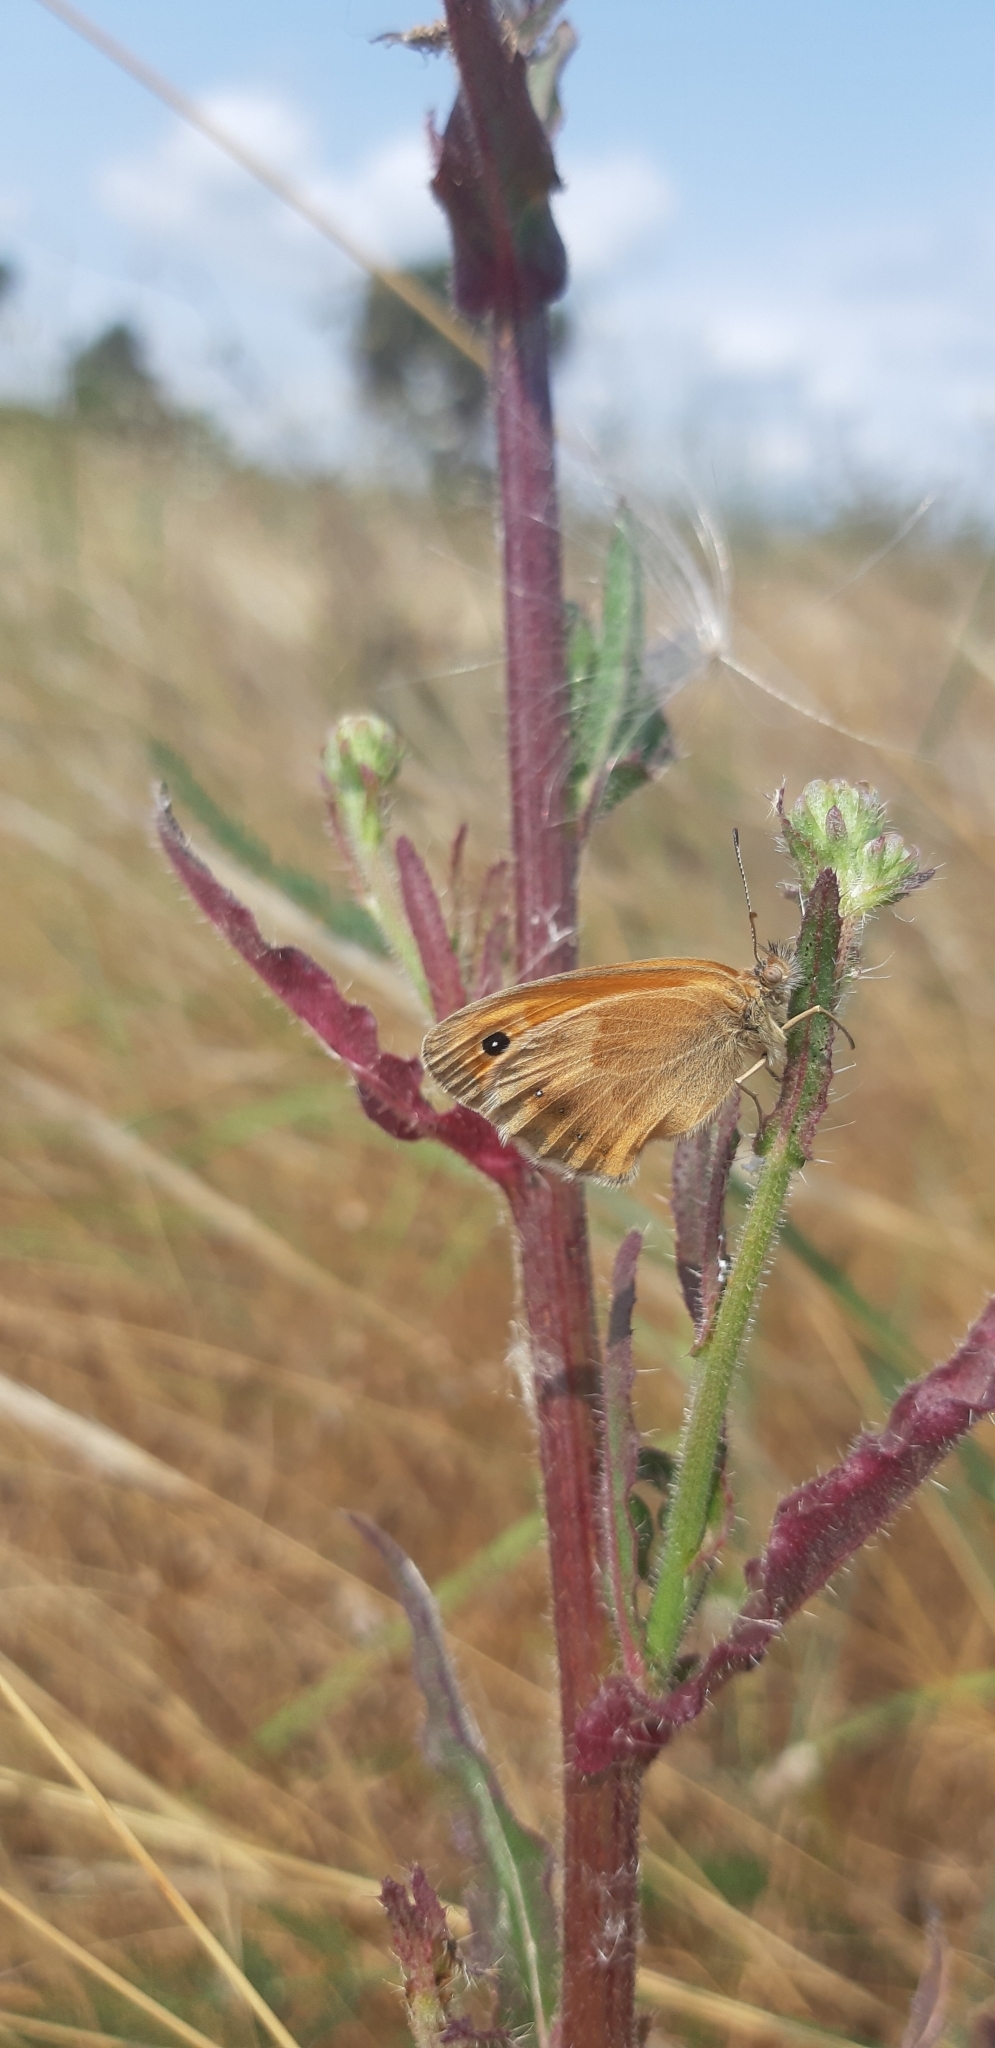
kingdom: Animalia
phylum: Arthropoda
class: Insecta
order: Lepidoptera
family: Nymphalidae
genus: Coenonympha
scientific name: Coenonympha pamphilus
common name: Small heath
